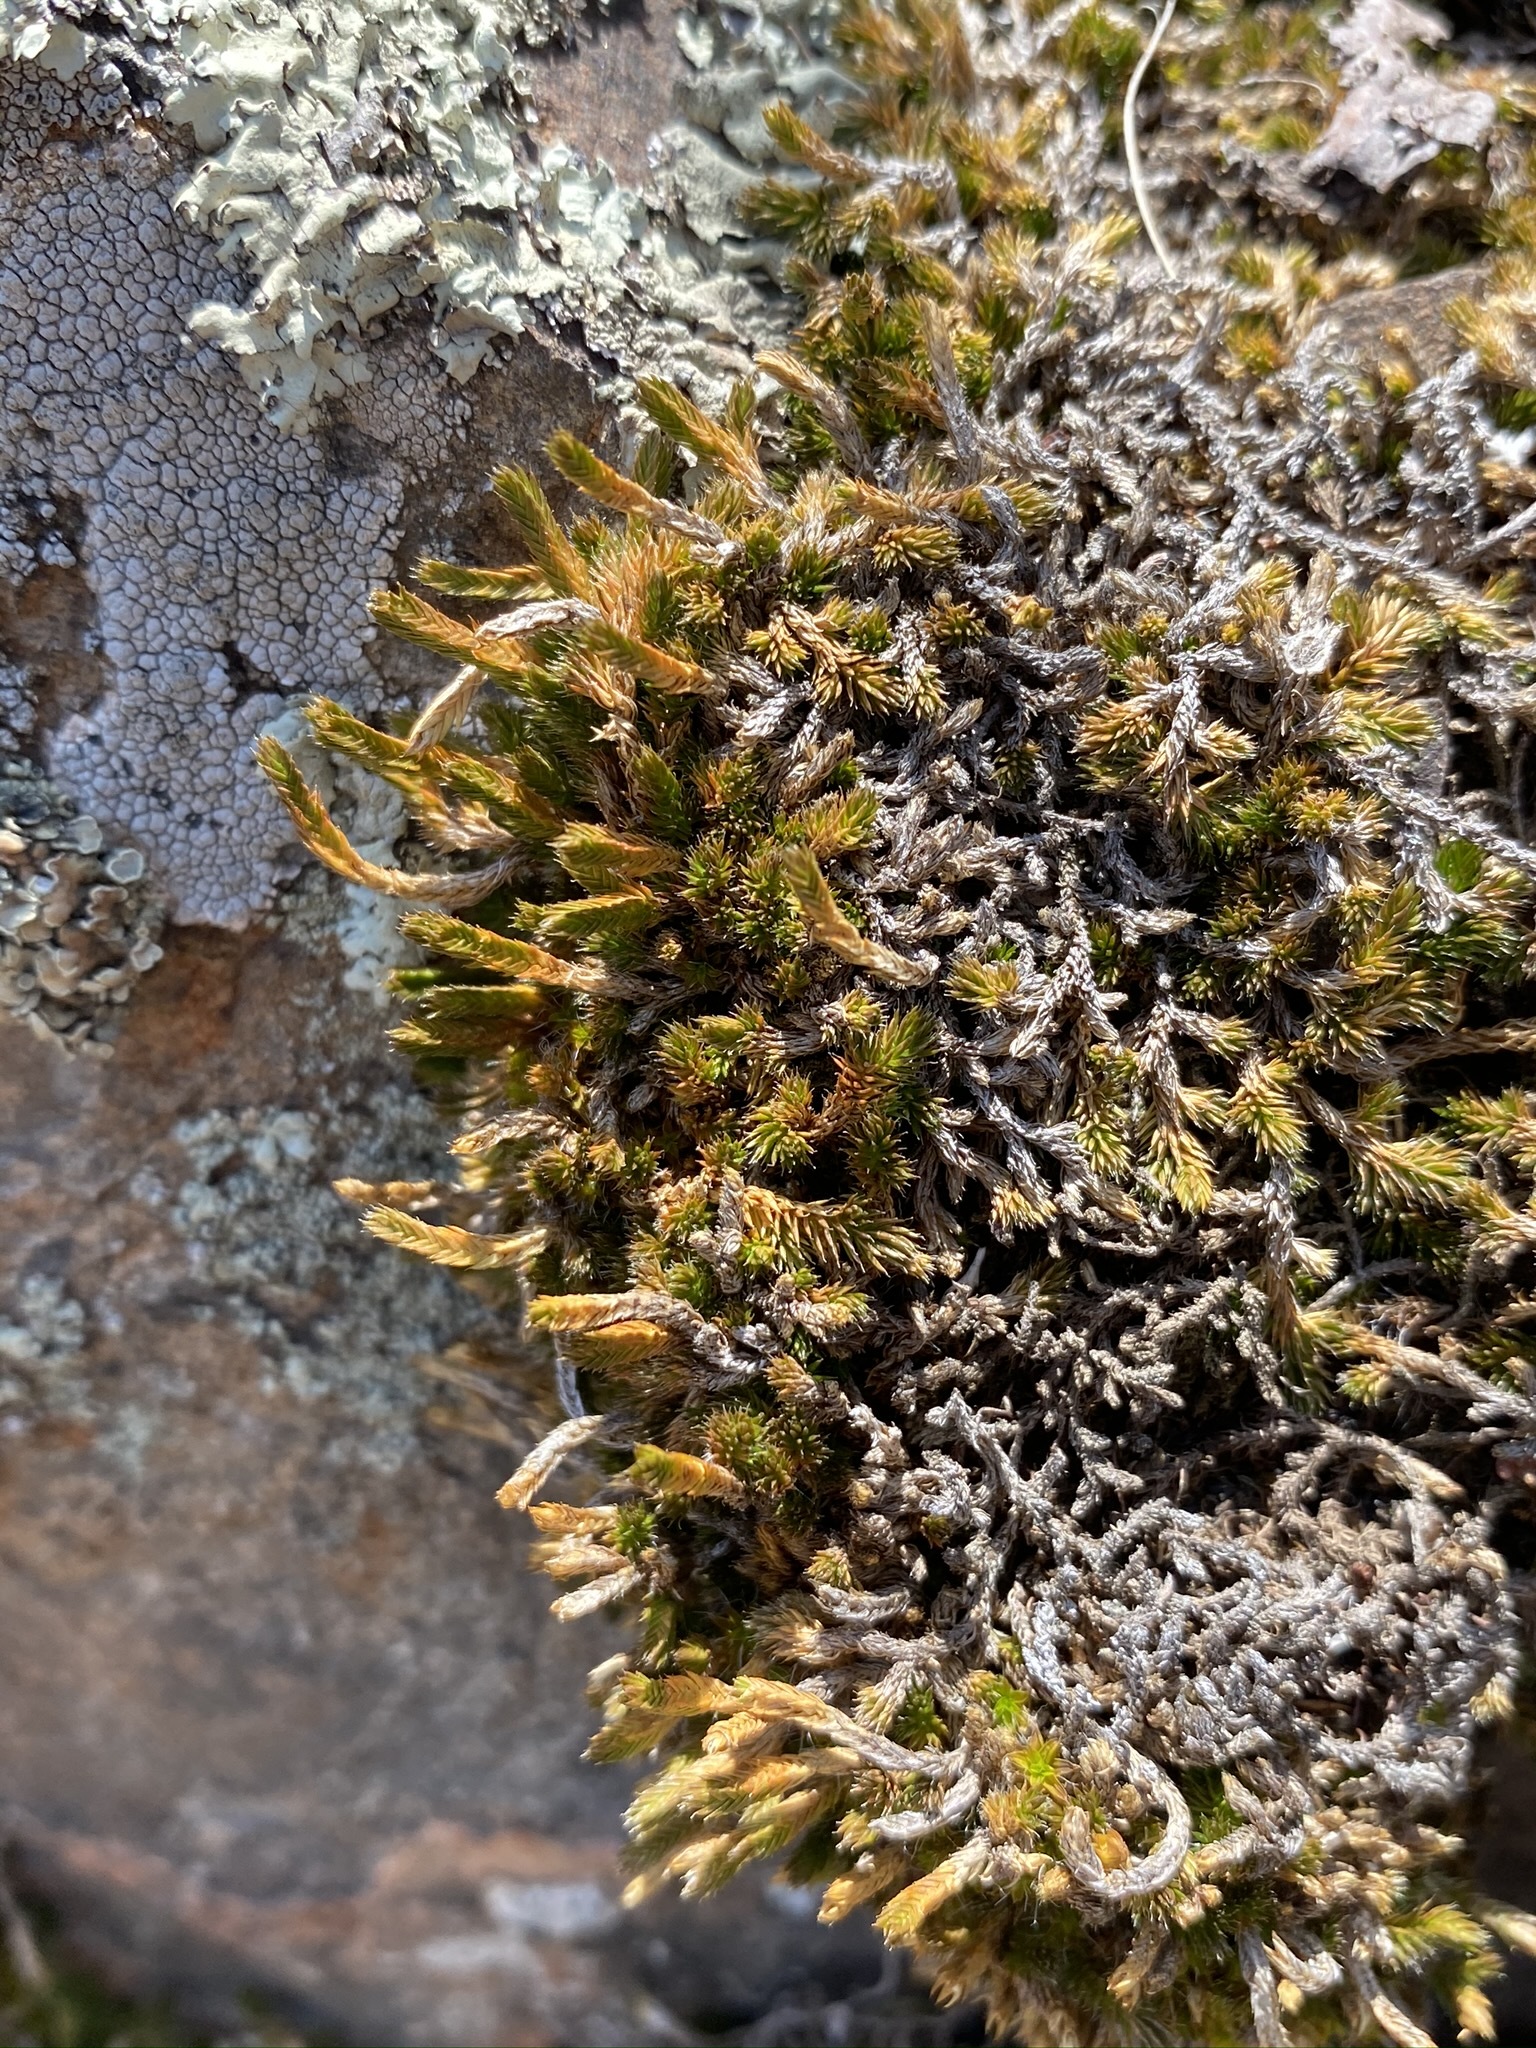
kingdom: Plantae
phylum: Tracheophyta
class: Lycopodiopsida
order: Selaginellales
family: Selaginellaceae
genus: Selaginella
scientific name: Selaginella densa
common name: Mountain spike-moss
